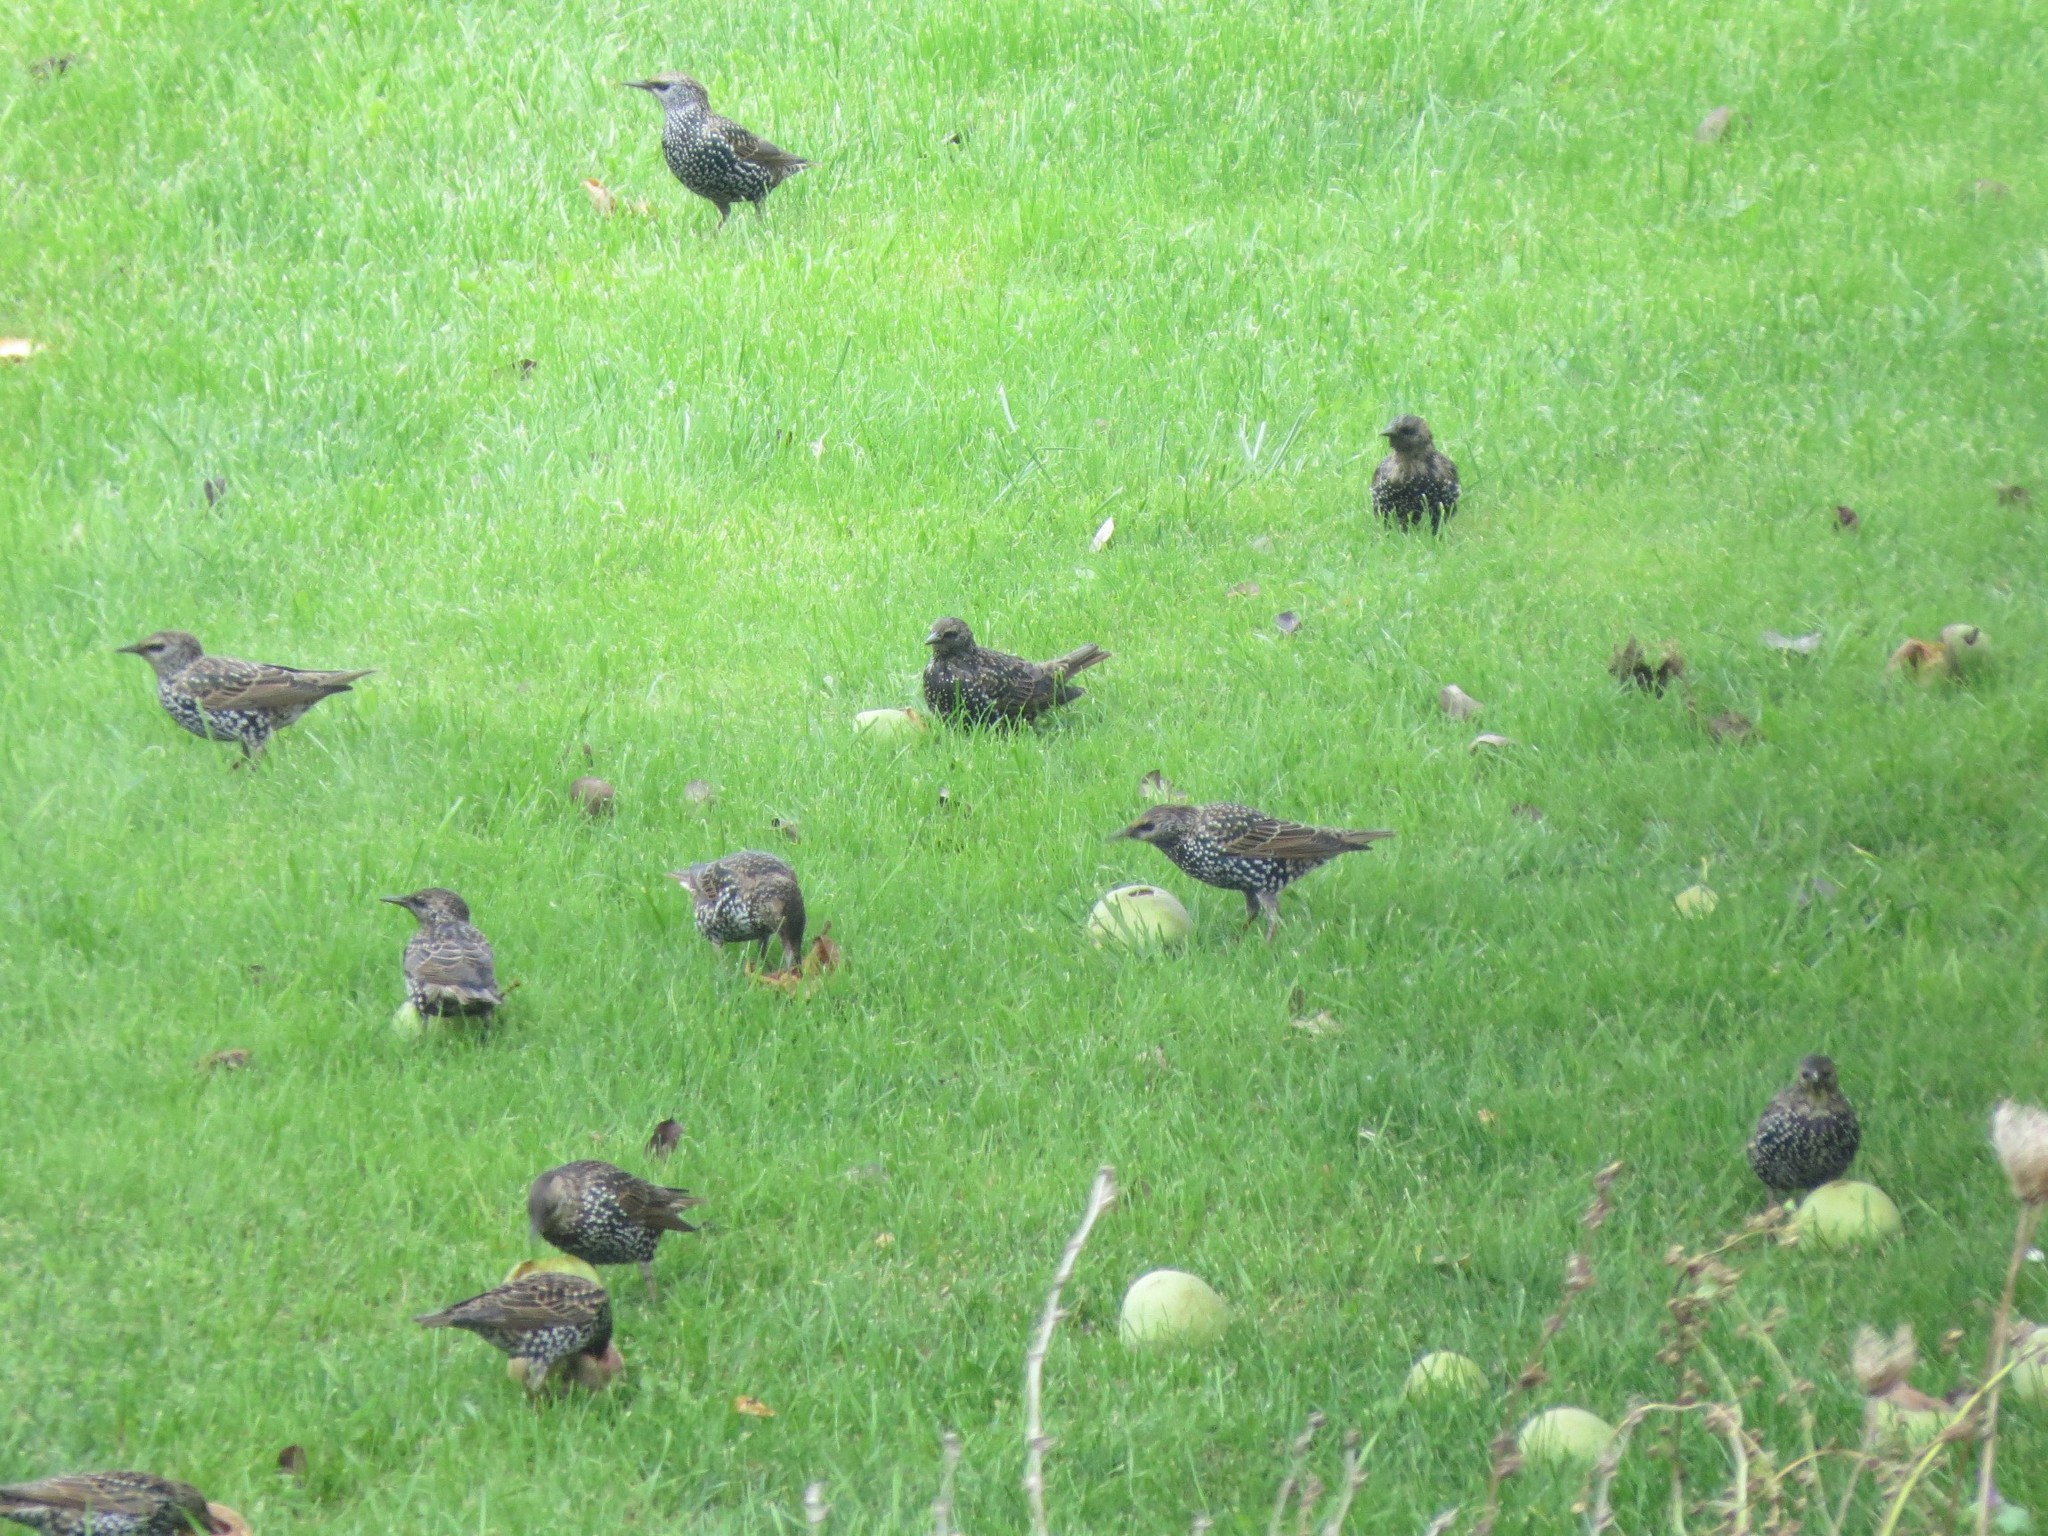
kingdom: Animalia
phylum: Chordata
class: Aves
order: Passeriformes
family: Sturnidae
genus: Sturnus
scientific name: Sturnus vulgaris
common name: Common starling
